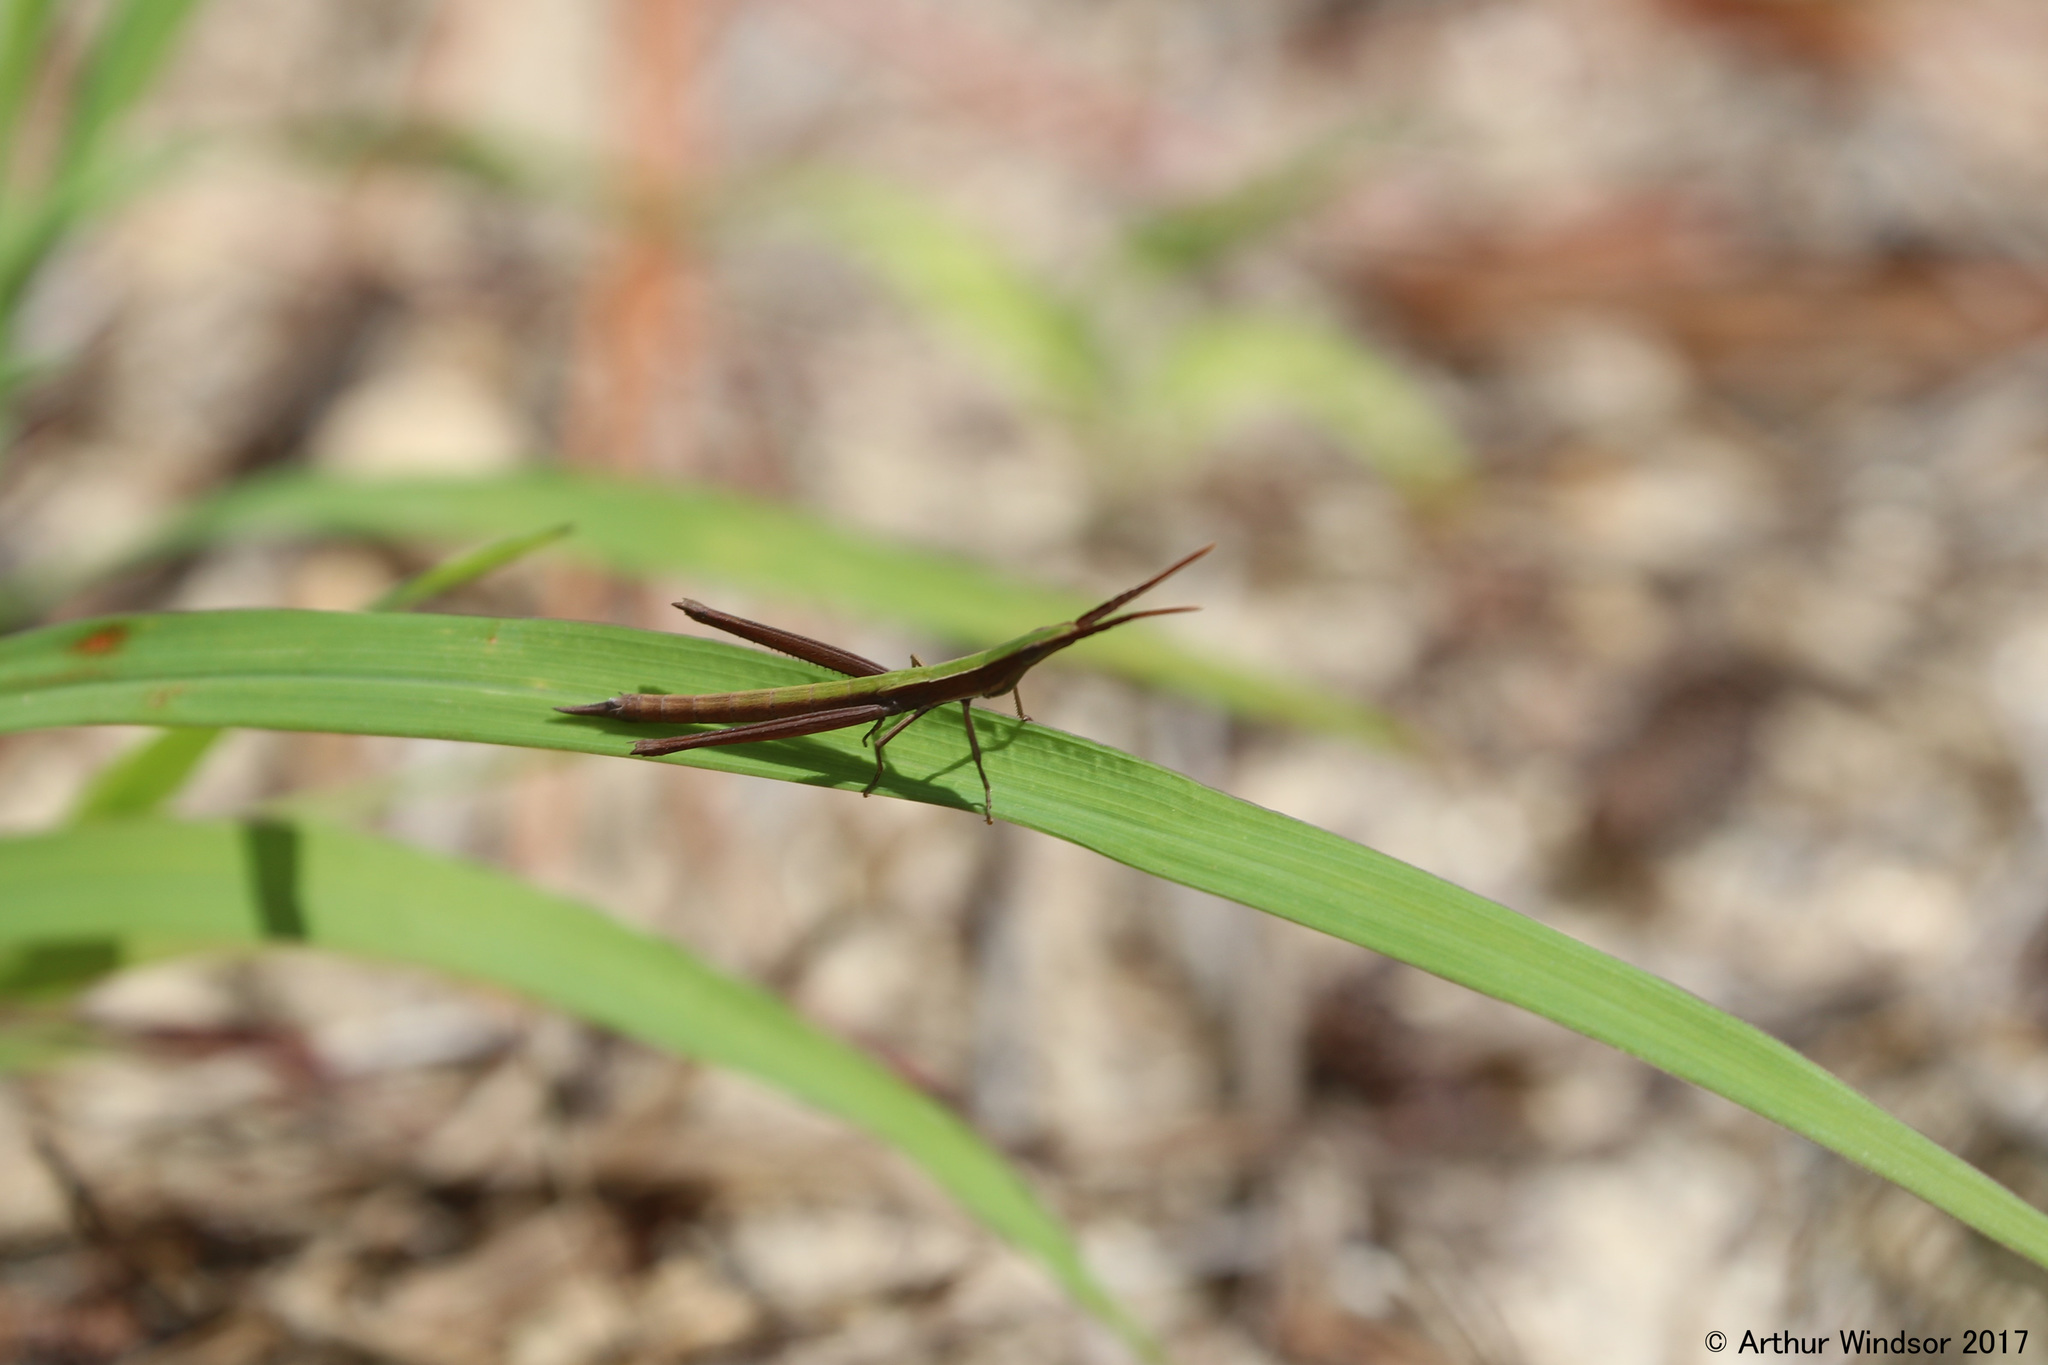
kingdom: Animalia
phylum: Arthropoda
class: Insecta
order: Orthoptera
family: Acrididae
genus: Achurum
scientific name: Achurum carinatum
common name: Long-headed toothpick grasshopper
